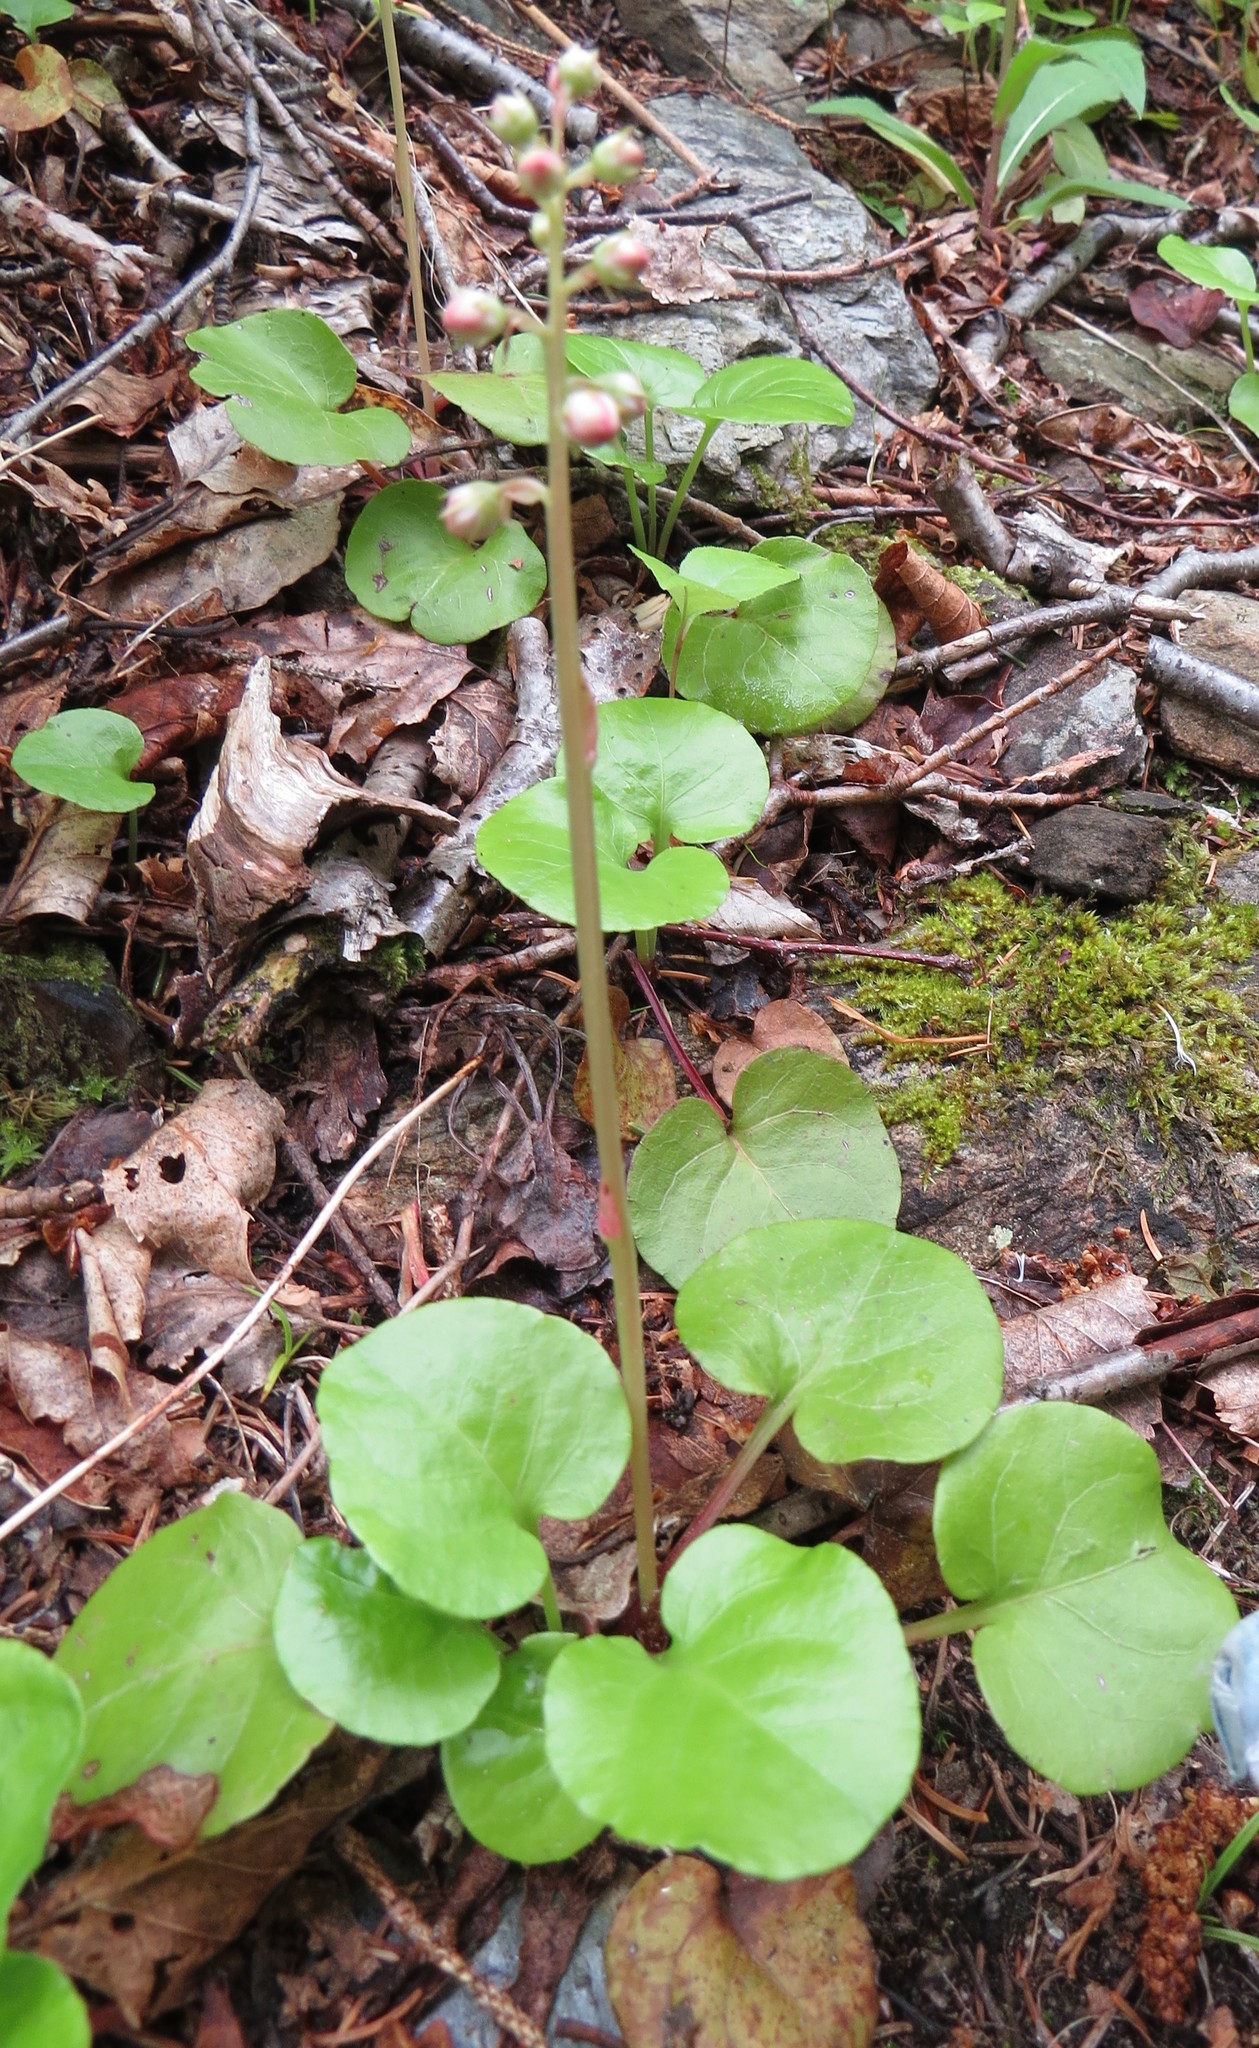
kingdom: Plantae
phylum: Tracheophyta
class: Magnoliopsida
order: Ericales
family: Ericaceae
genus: Pyrola
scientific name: Pyrola asarifolia
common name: Bog wintergreen
